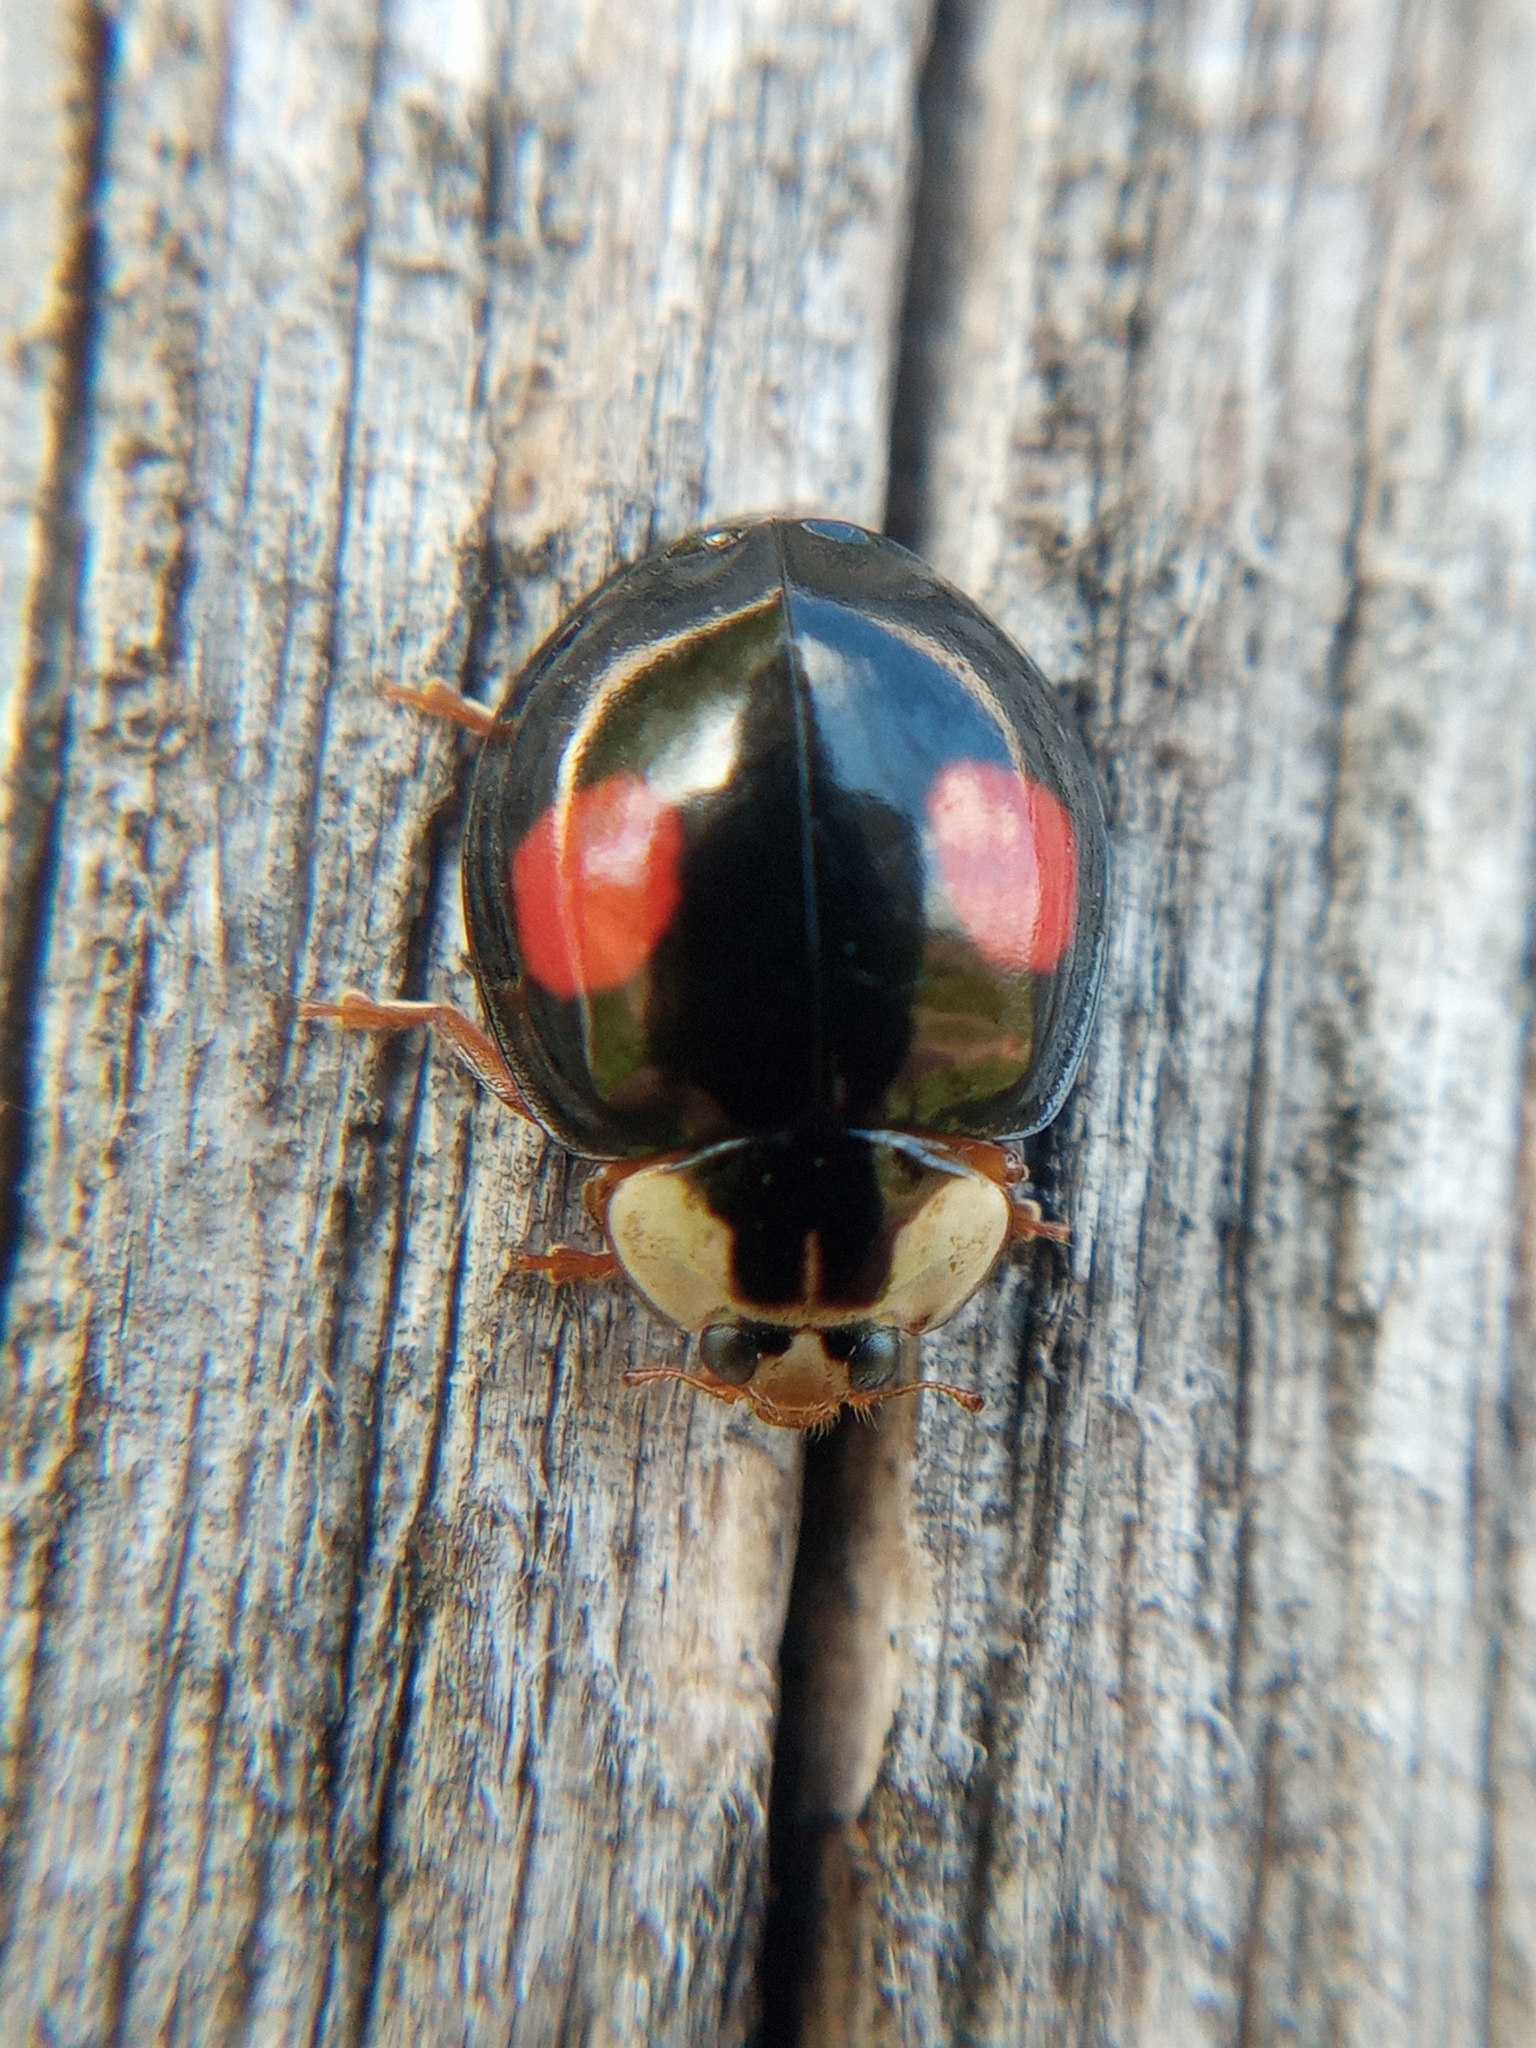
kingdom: Animalia
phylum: Arthropoda
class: Insecta
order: Coleoptera
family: Coccinellidae
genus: Harmonia
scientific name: Harmonia axyridis
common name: Harlequin ladybird
